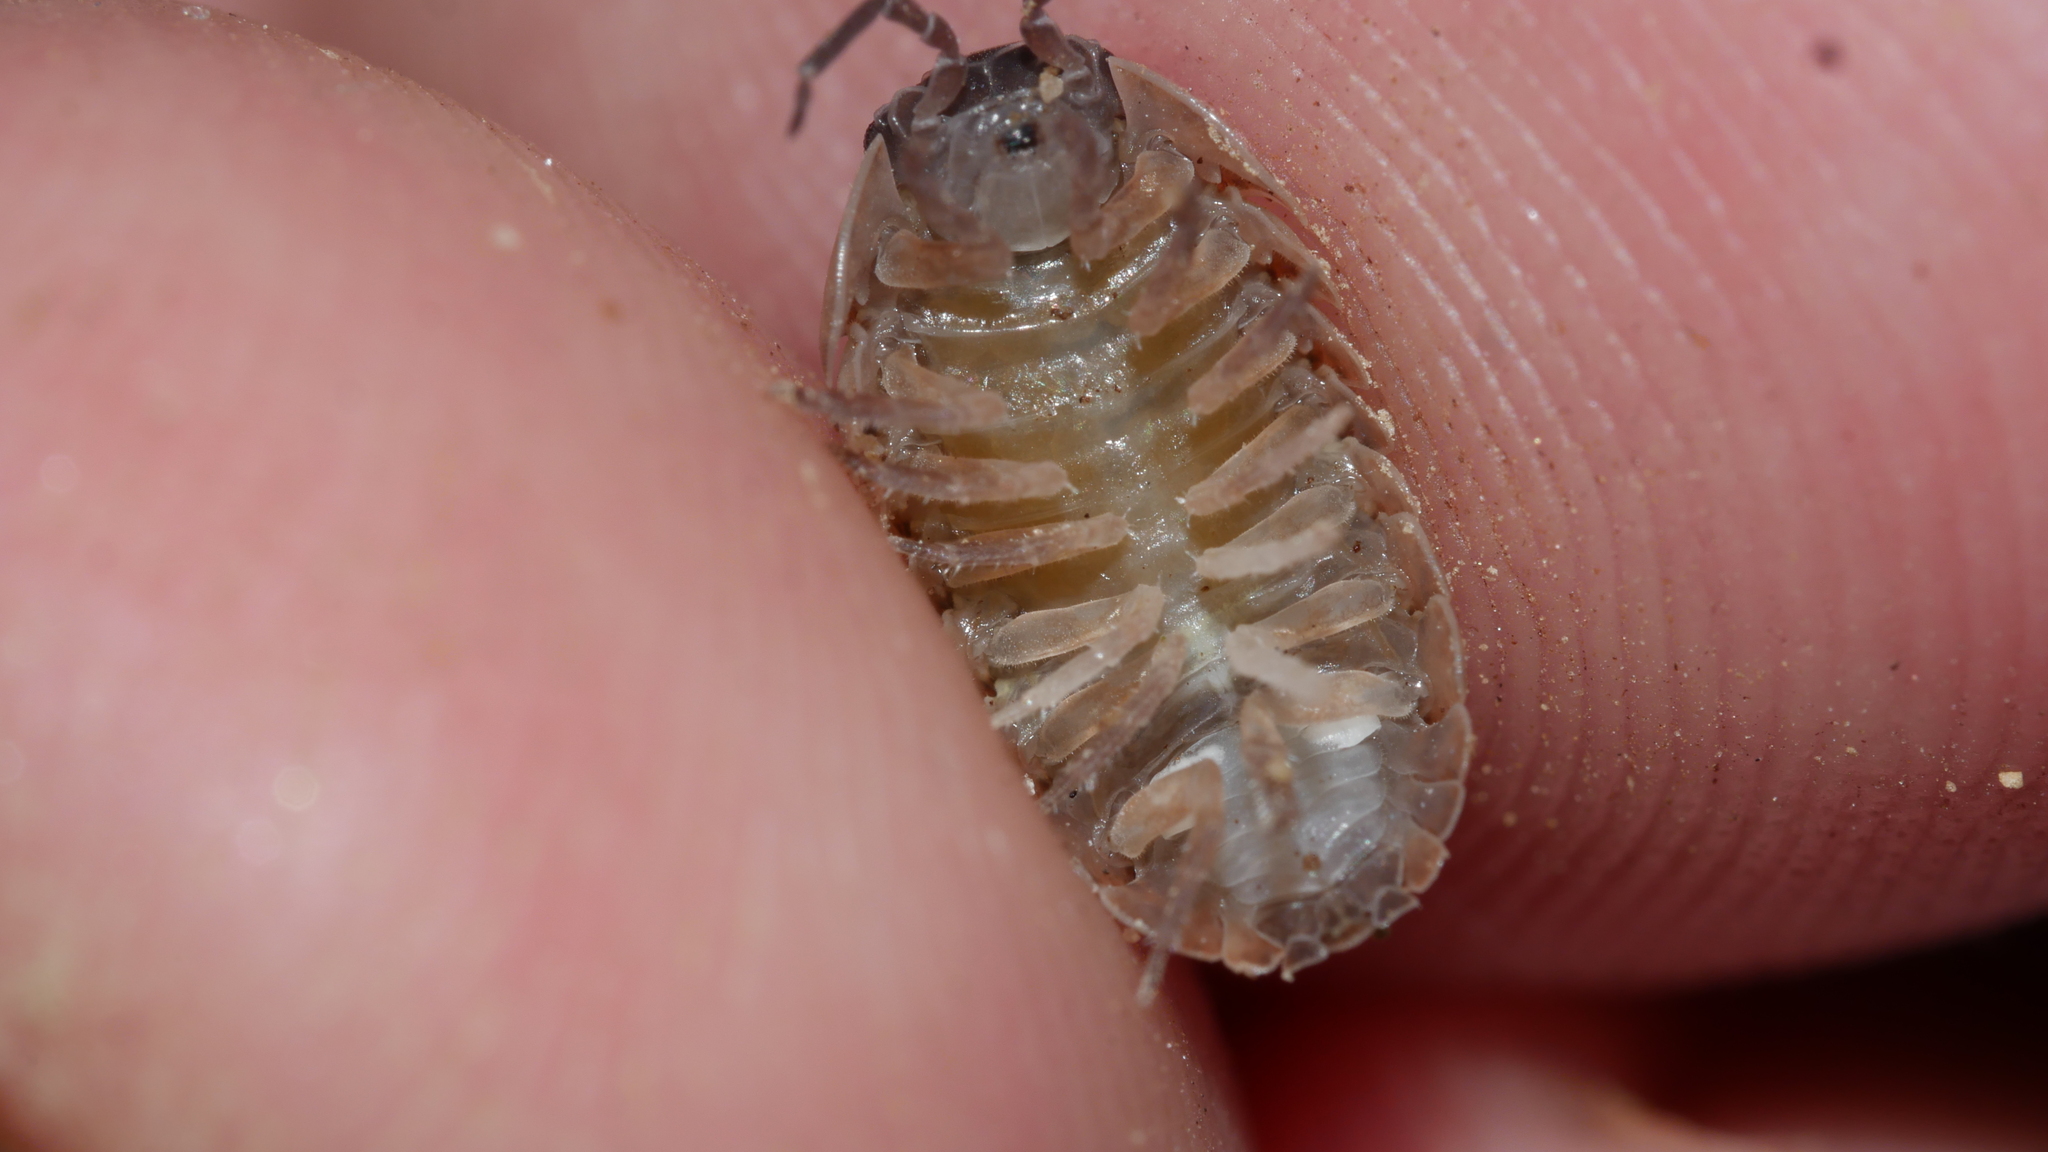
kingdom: Animalia
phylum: Arthropoda
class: Malacostraca
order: Isopoda
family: Armadillidiidae
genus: Armadillidium
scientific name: Armadillidium vulgare
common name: Common pill woodlouse
